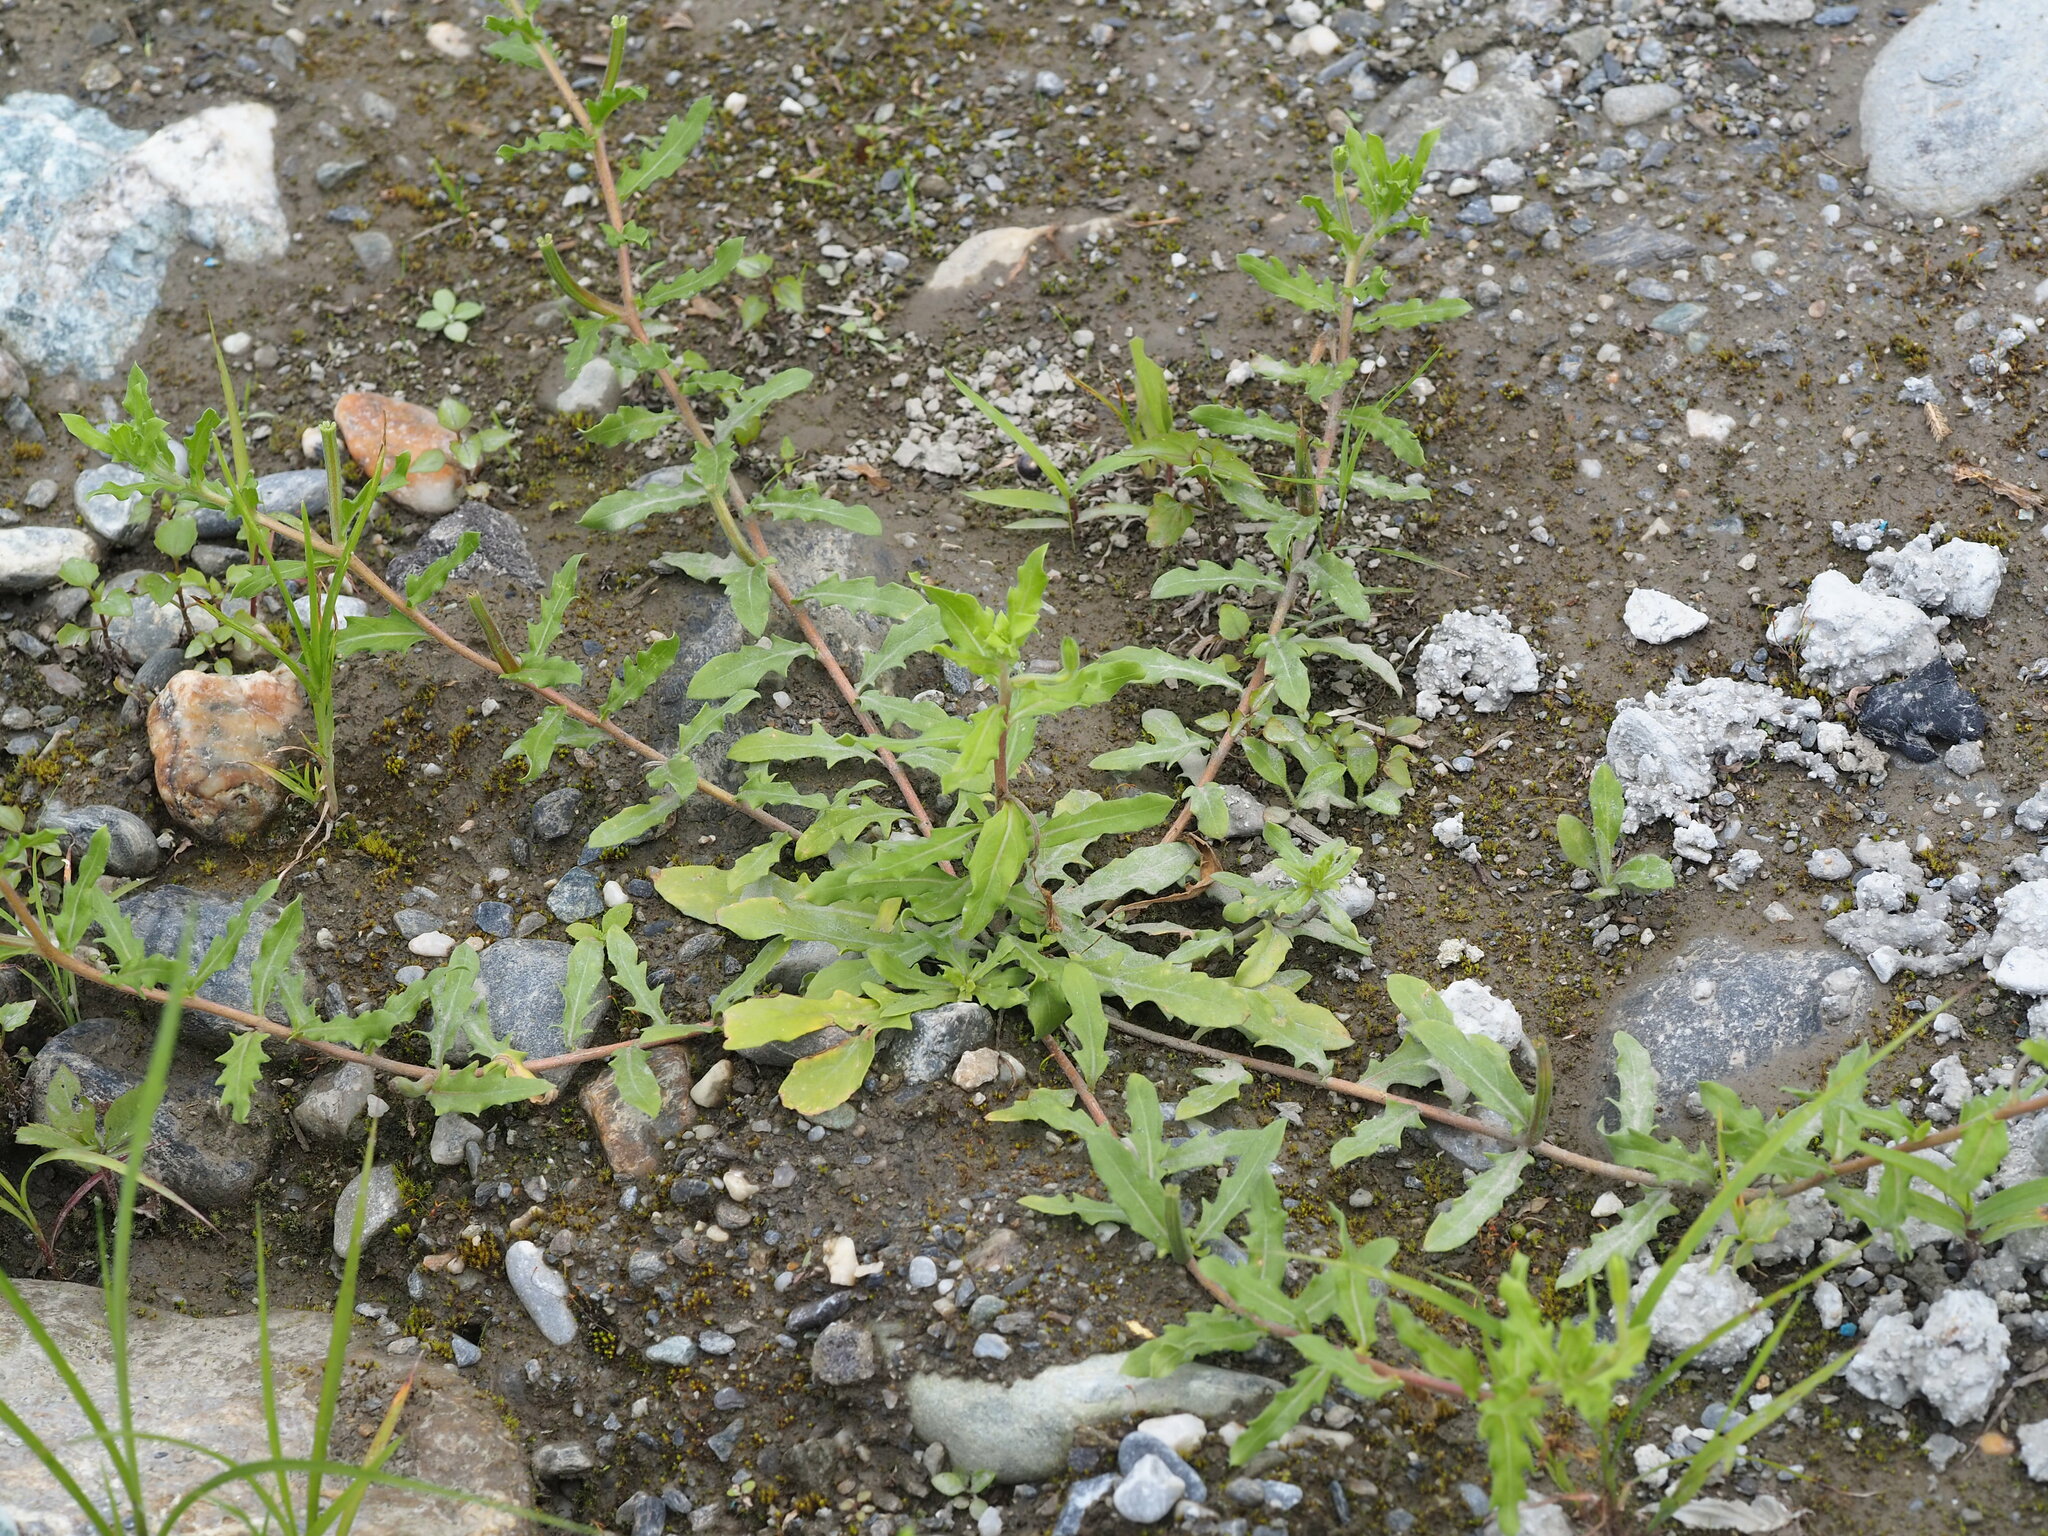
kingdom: Plantae
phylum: Tracheophyta
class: Magnoliopsida
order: Myrtales
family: Onagraceae
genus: Oenothera
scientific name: Oenothera laciniata
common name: Cut-leaved evening-primrose
